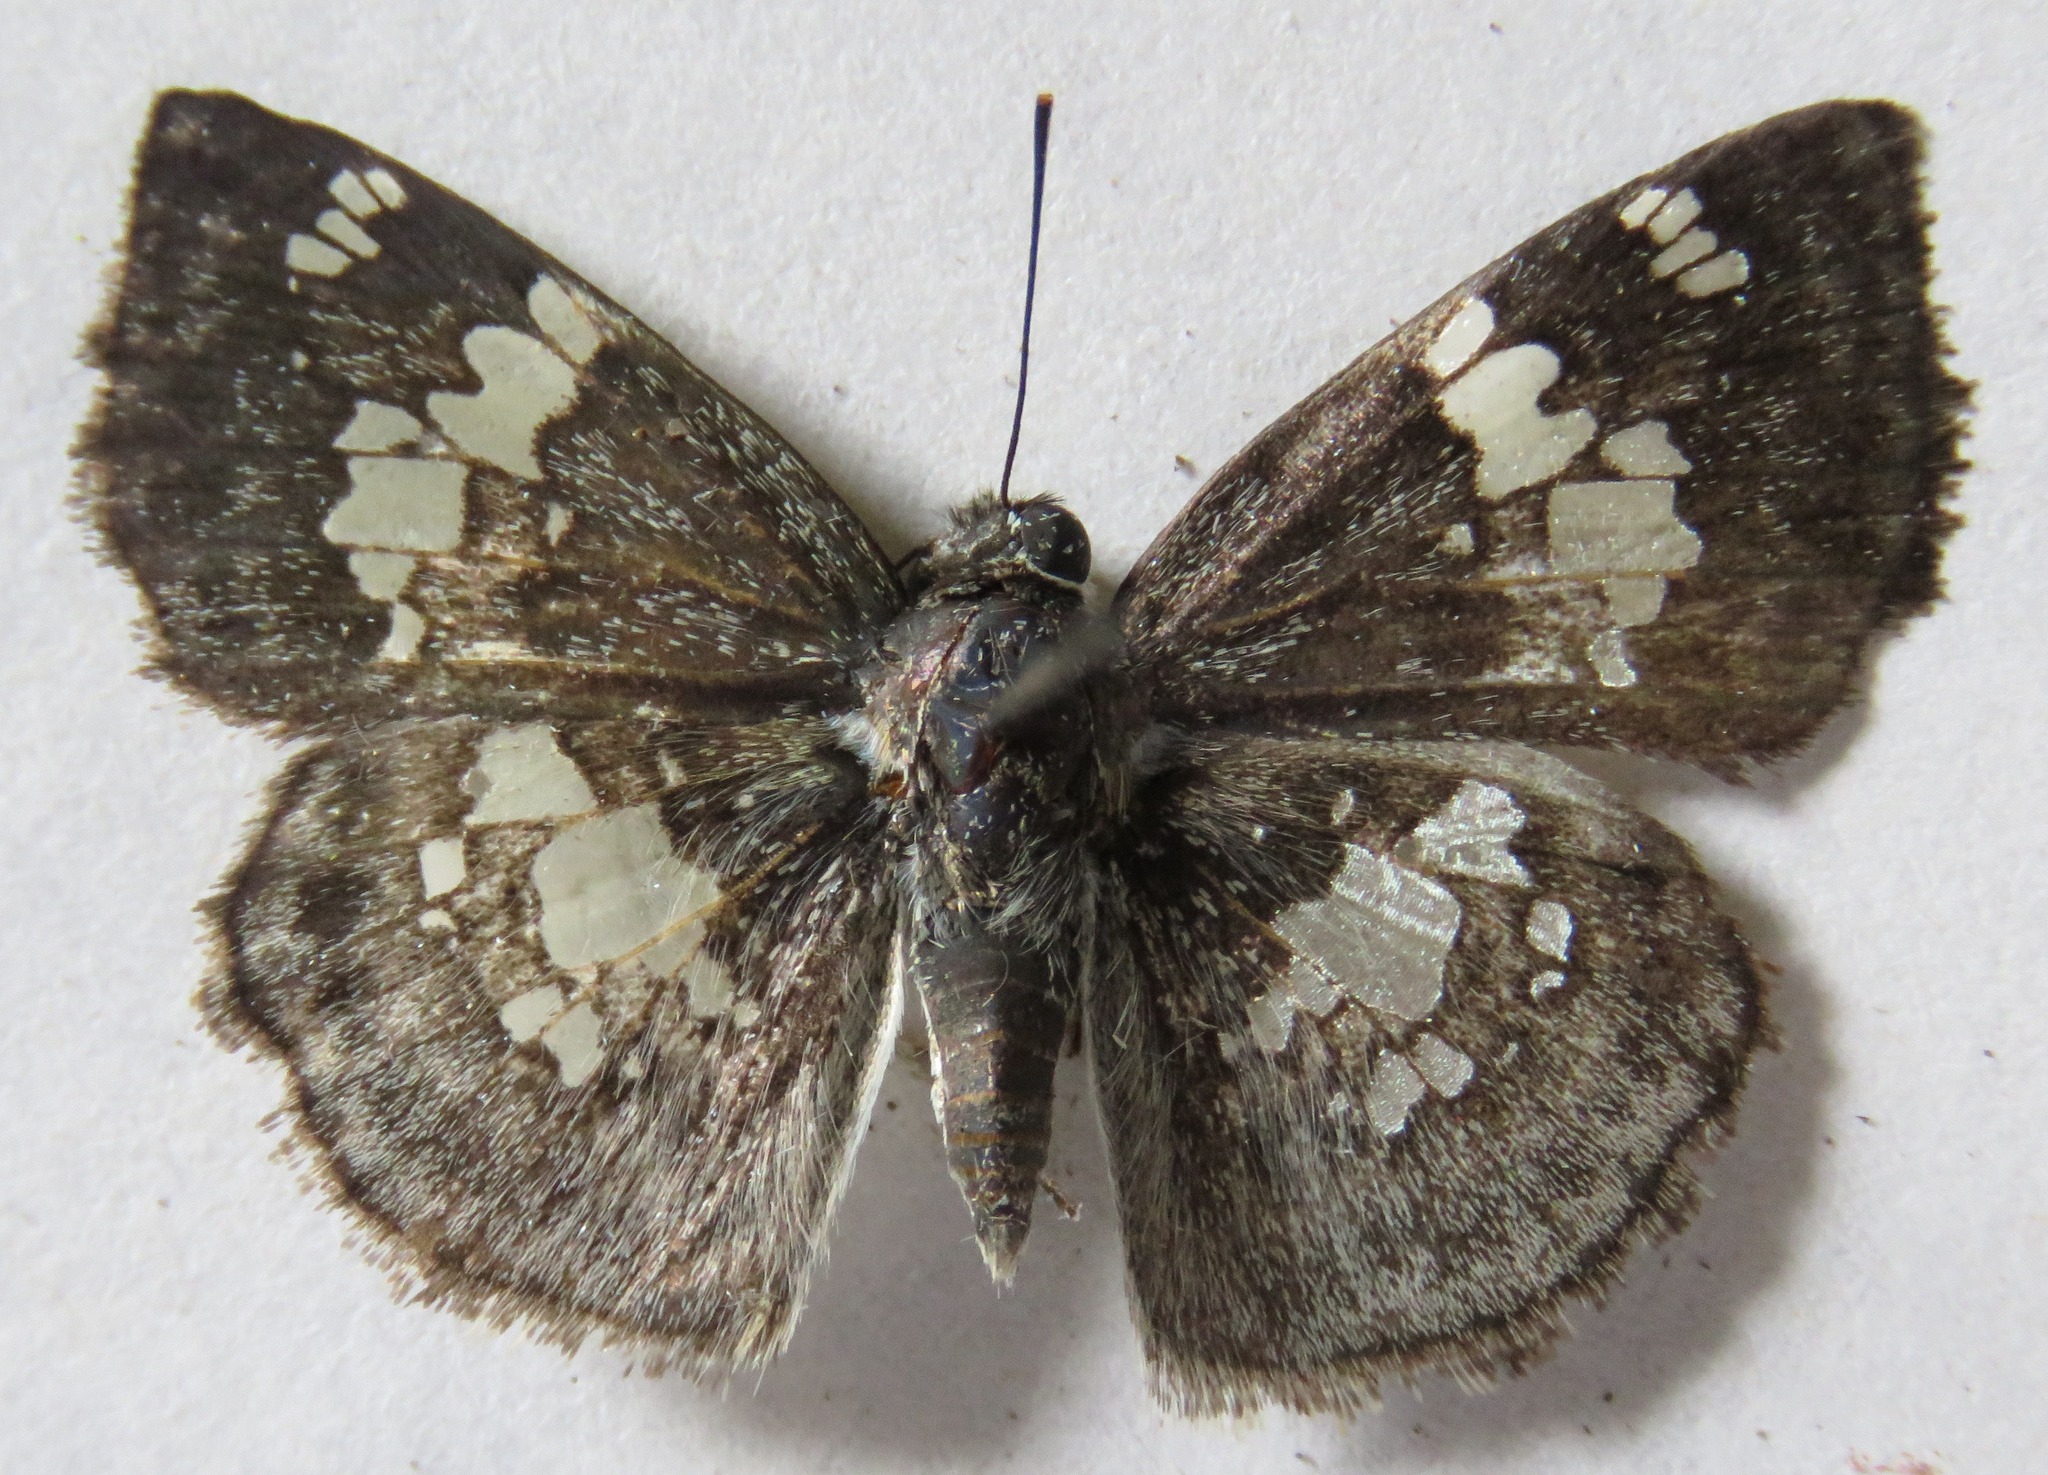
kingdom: Animalia
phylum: Arthropoda
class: Insecta
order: Lepidoptera
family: Hesperiidae
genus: Xenophanes
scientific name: Xenophanes tryxus
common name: Glassy-winged skipper
